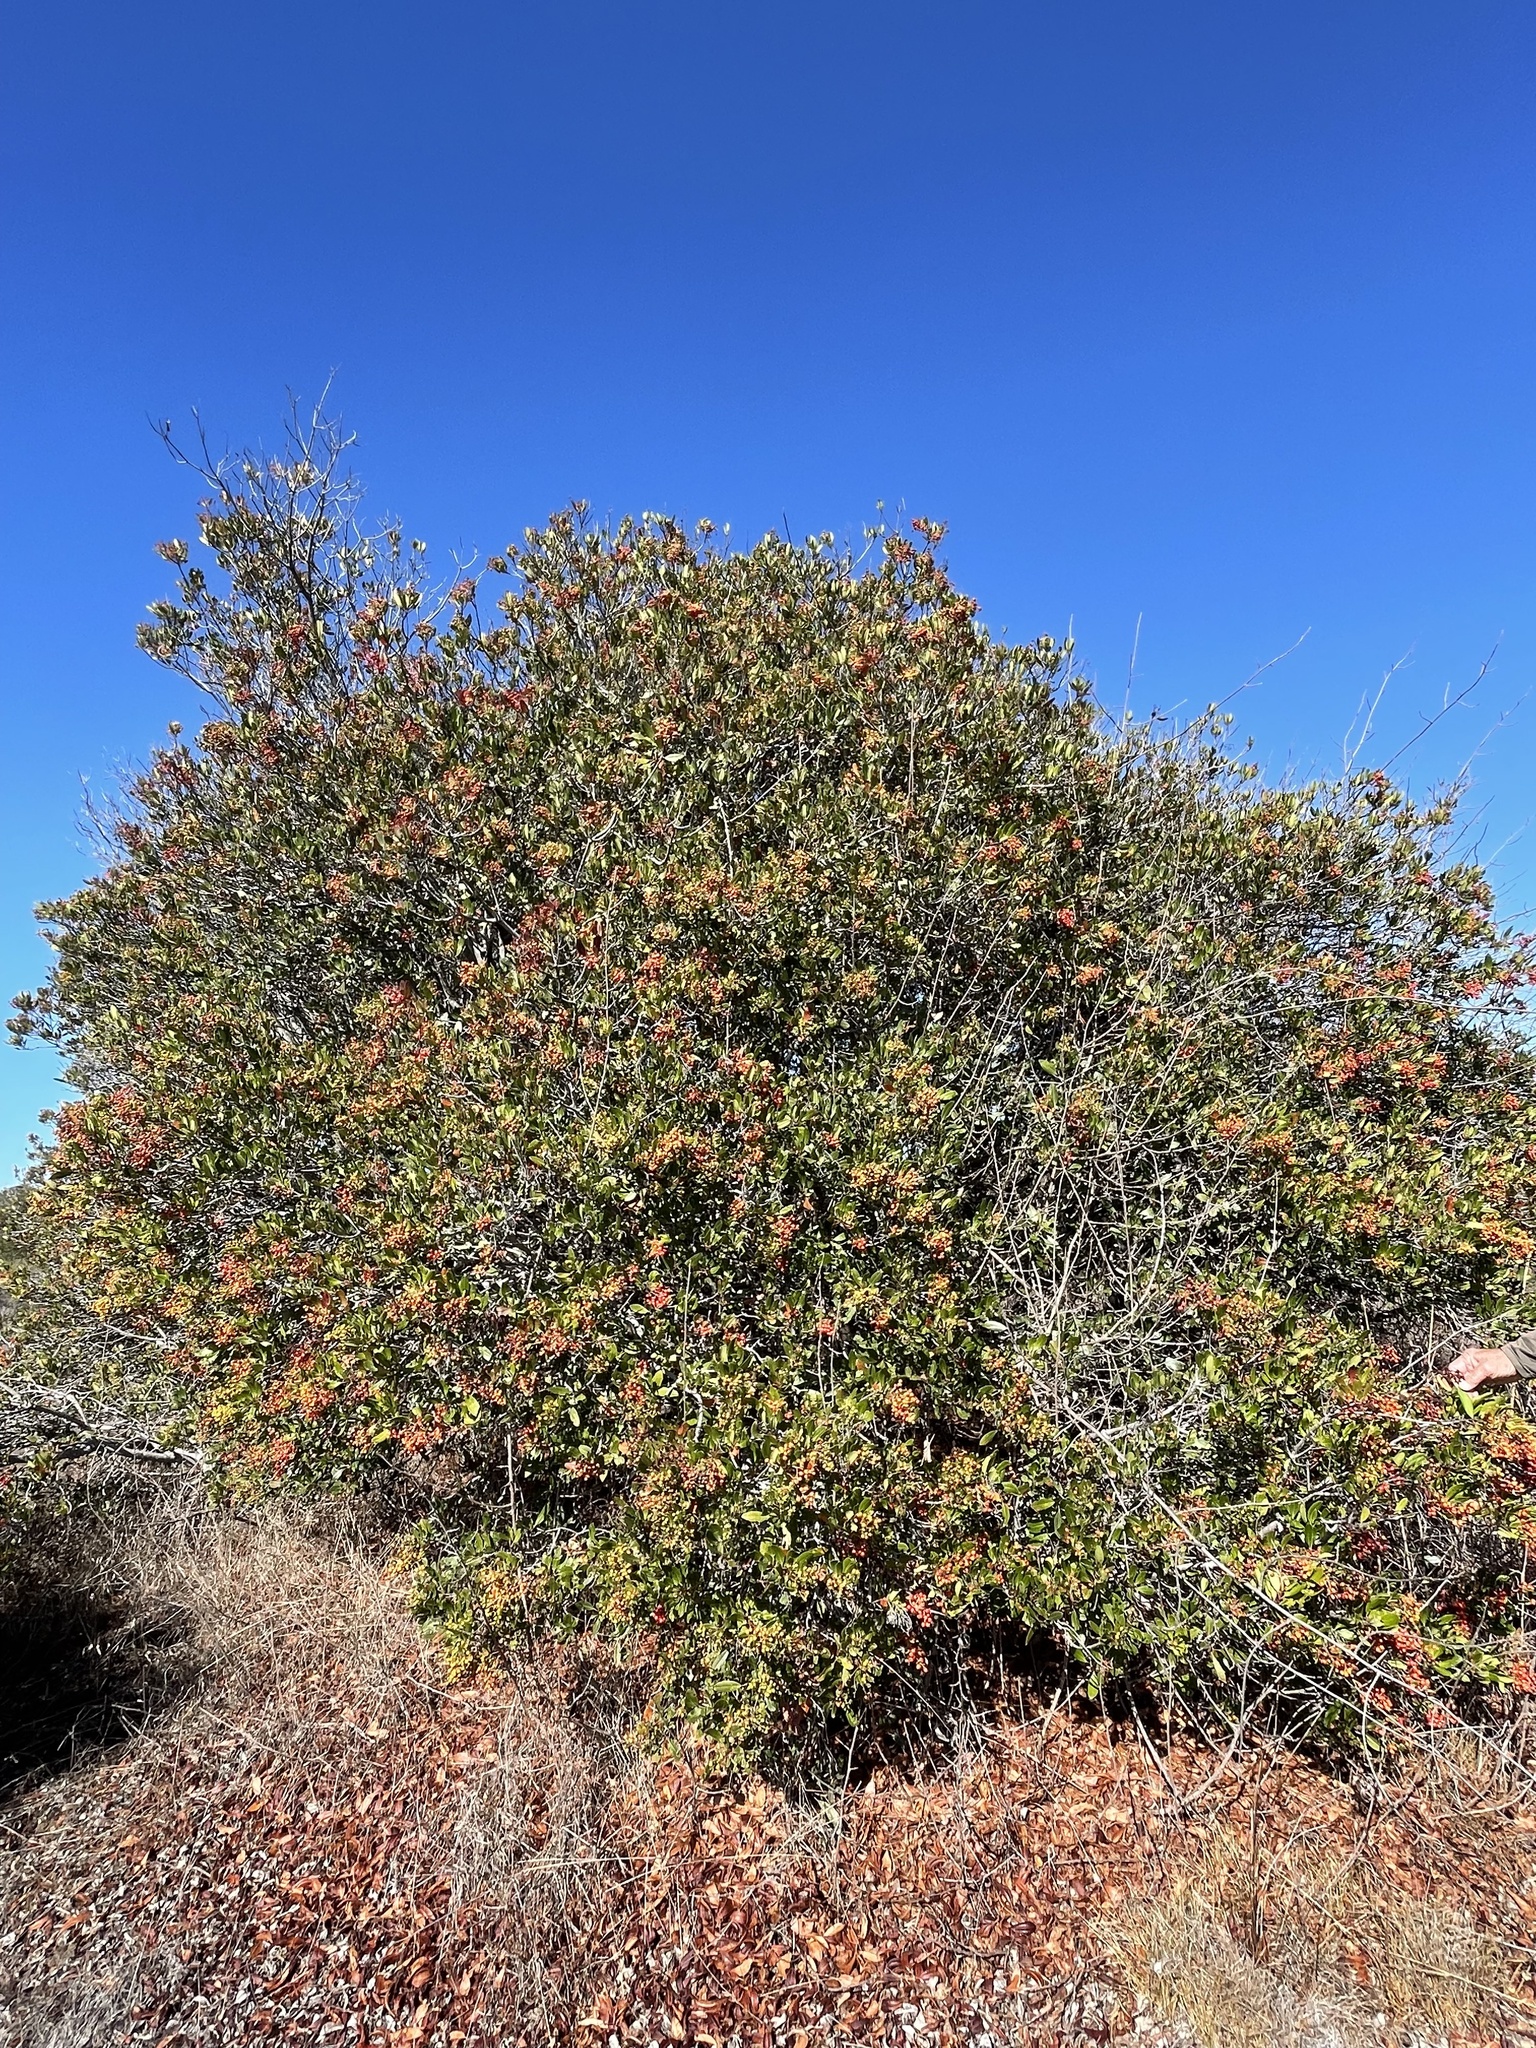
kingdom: Plantae
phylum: Tracheophyta
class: Magnoliopsida
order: Rosales
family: Rosaceae
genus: Heteromeles
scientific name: Heteromeles arbutifolia
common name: California-holly
